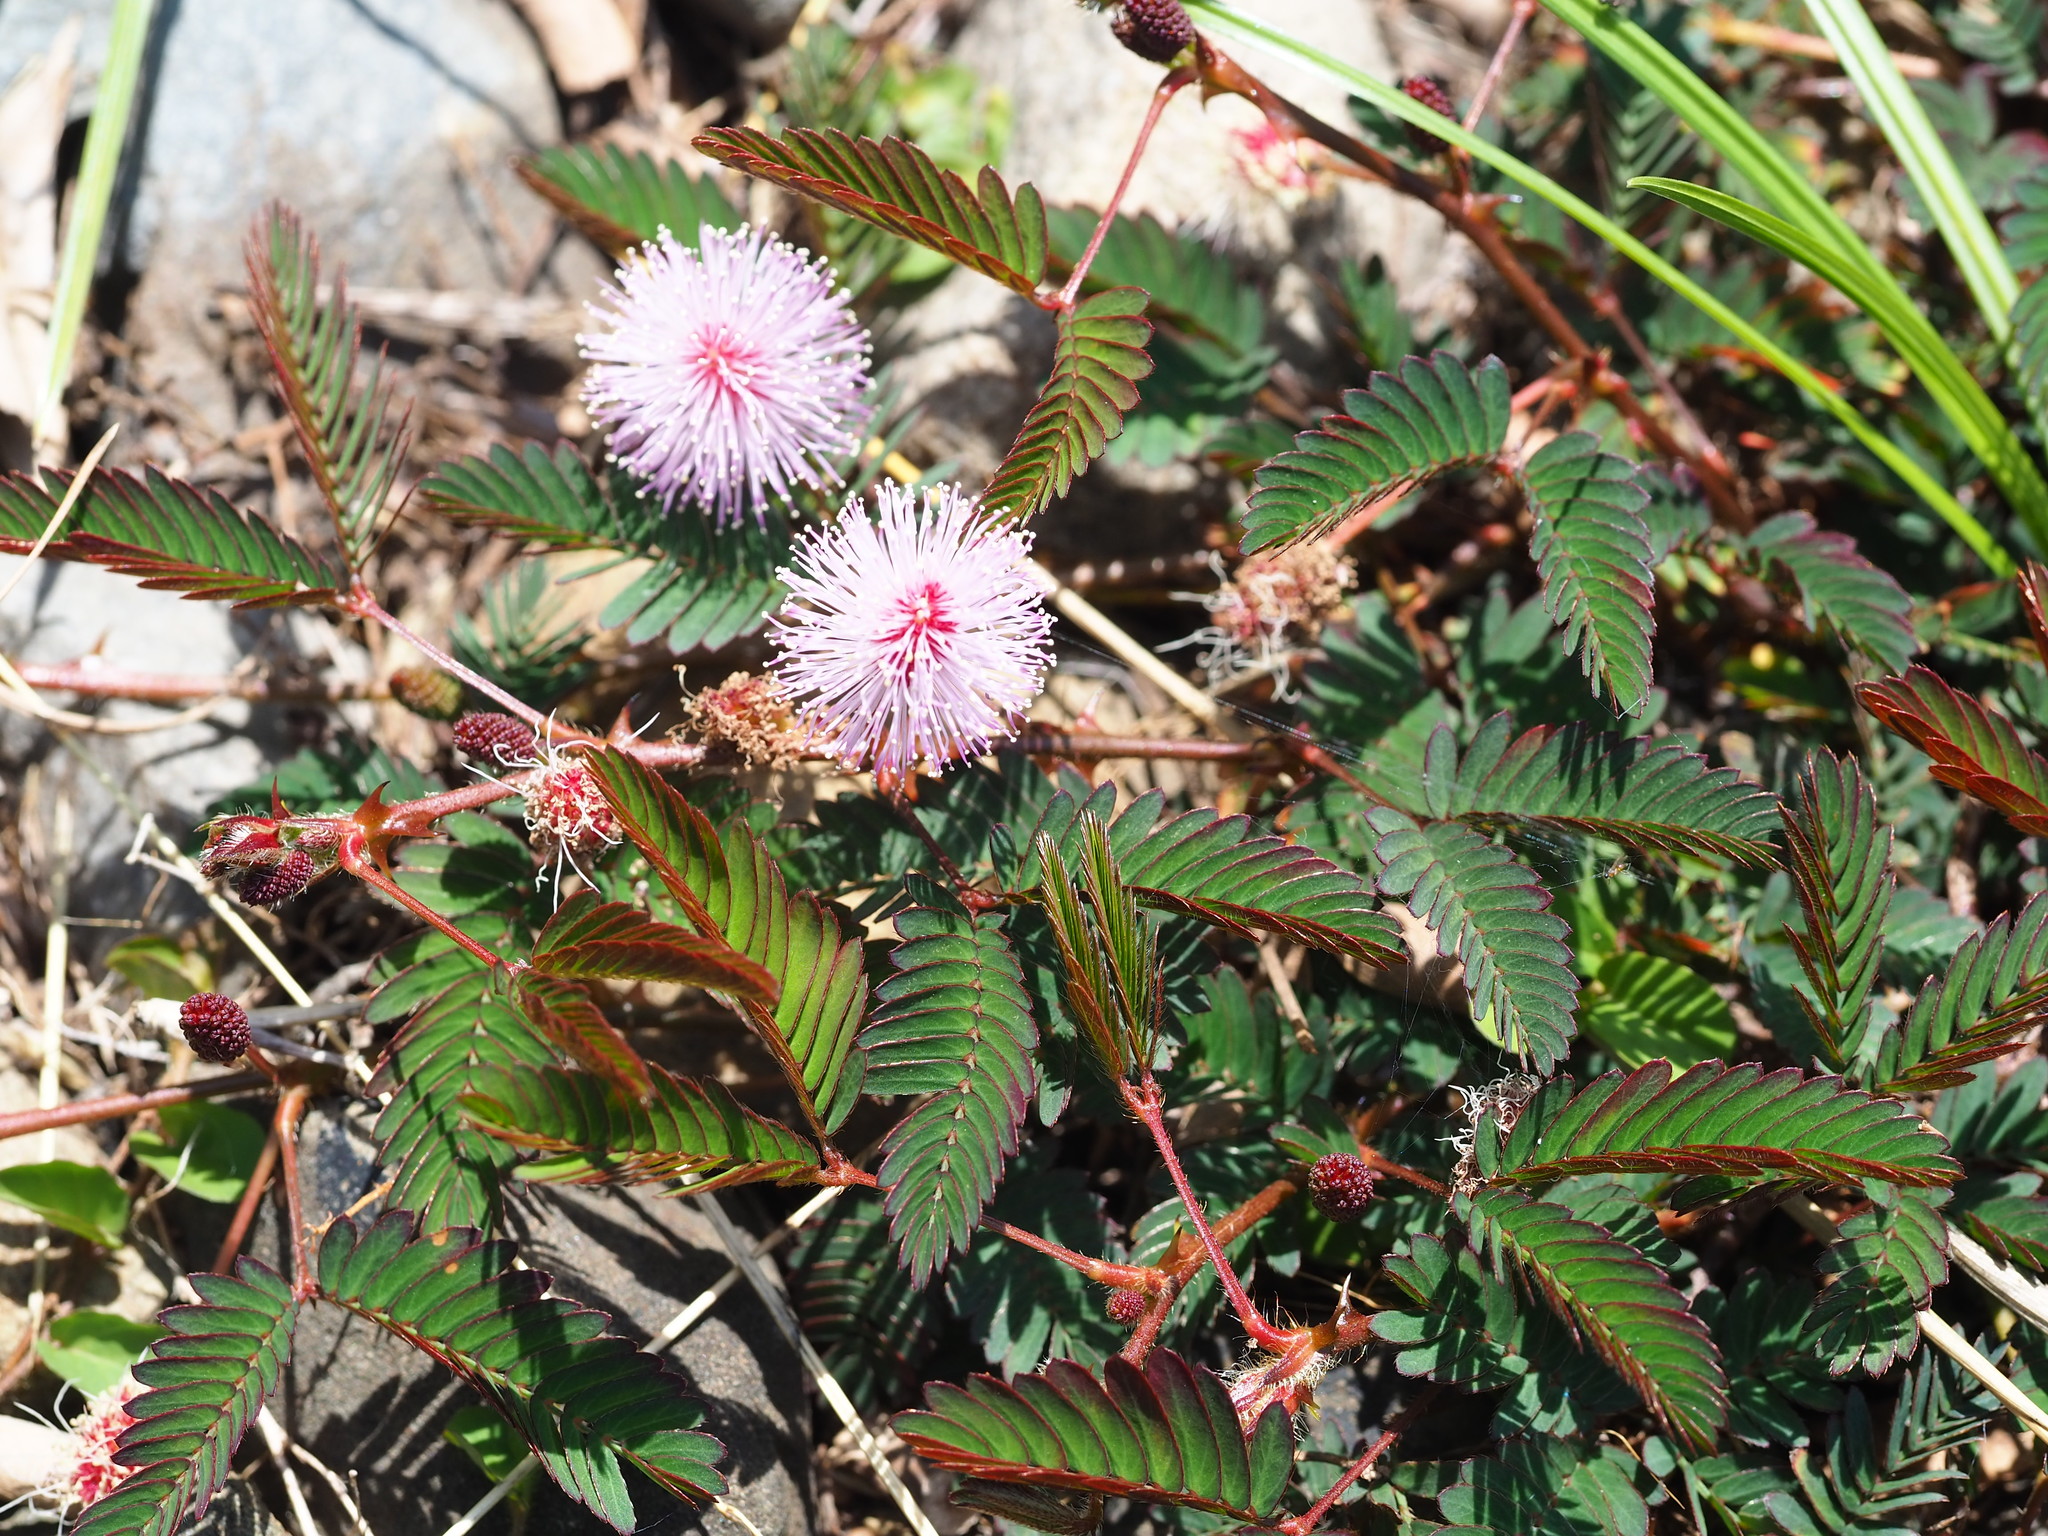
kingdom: Plantae
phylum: Tracheophyta
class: Magnoliopsida
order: Fabales
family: Fabaceae
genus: Mimosa
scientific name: Mimosa pudica
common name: Sensitive plant
